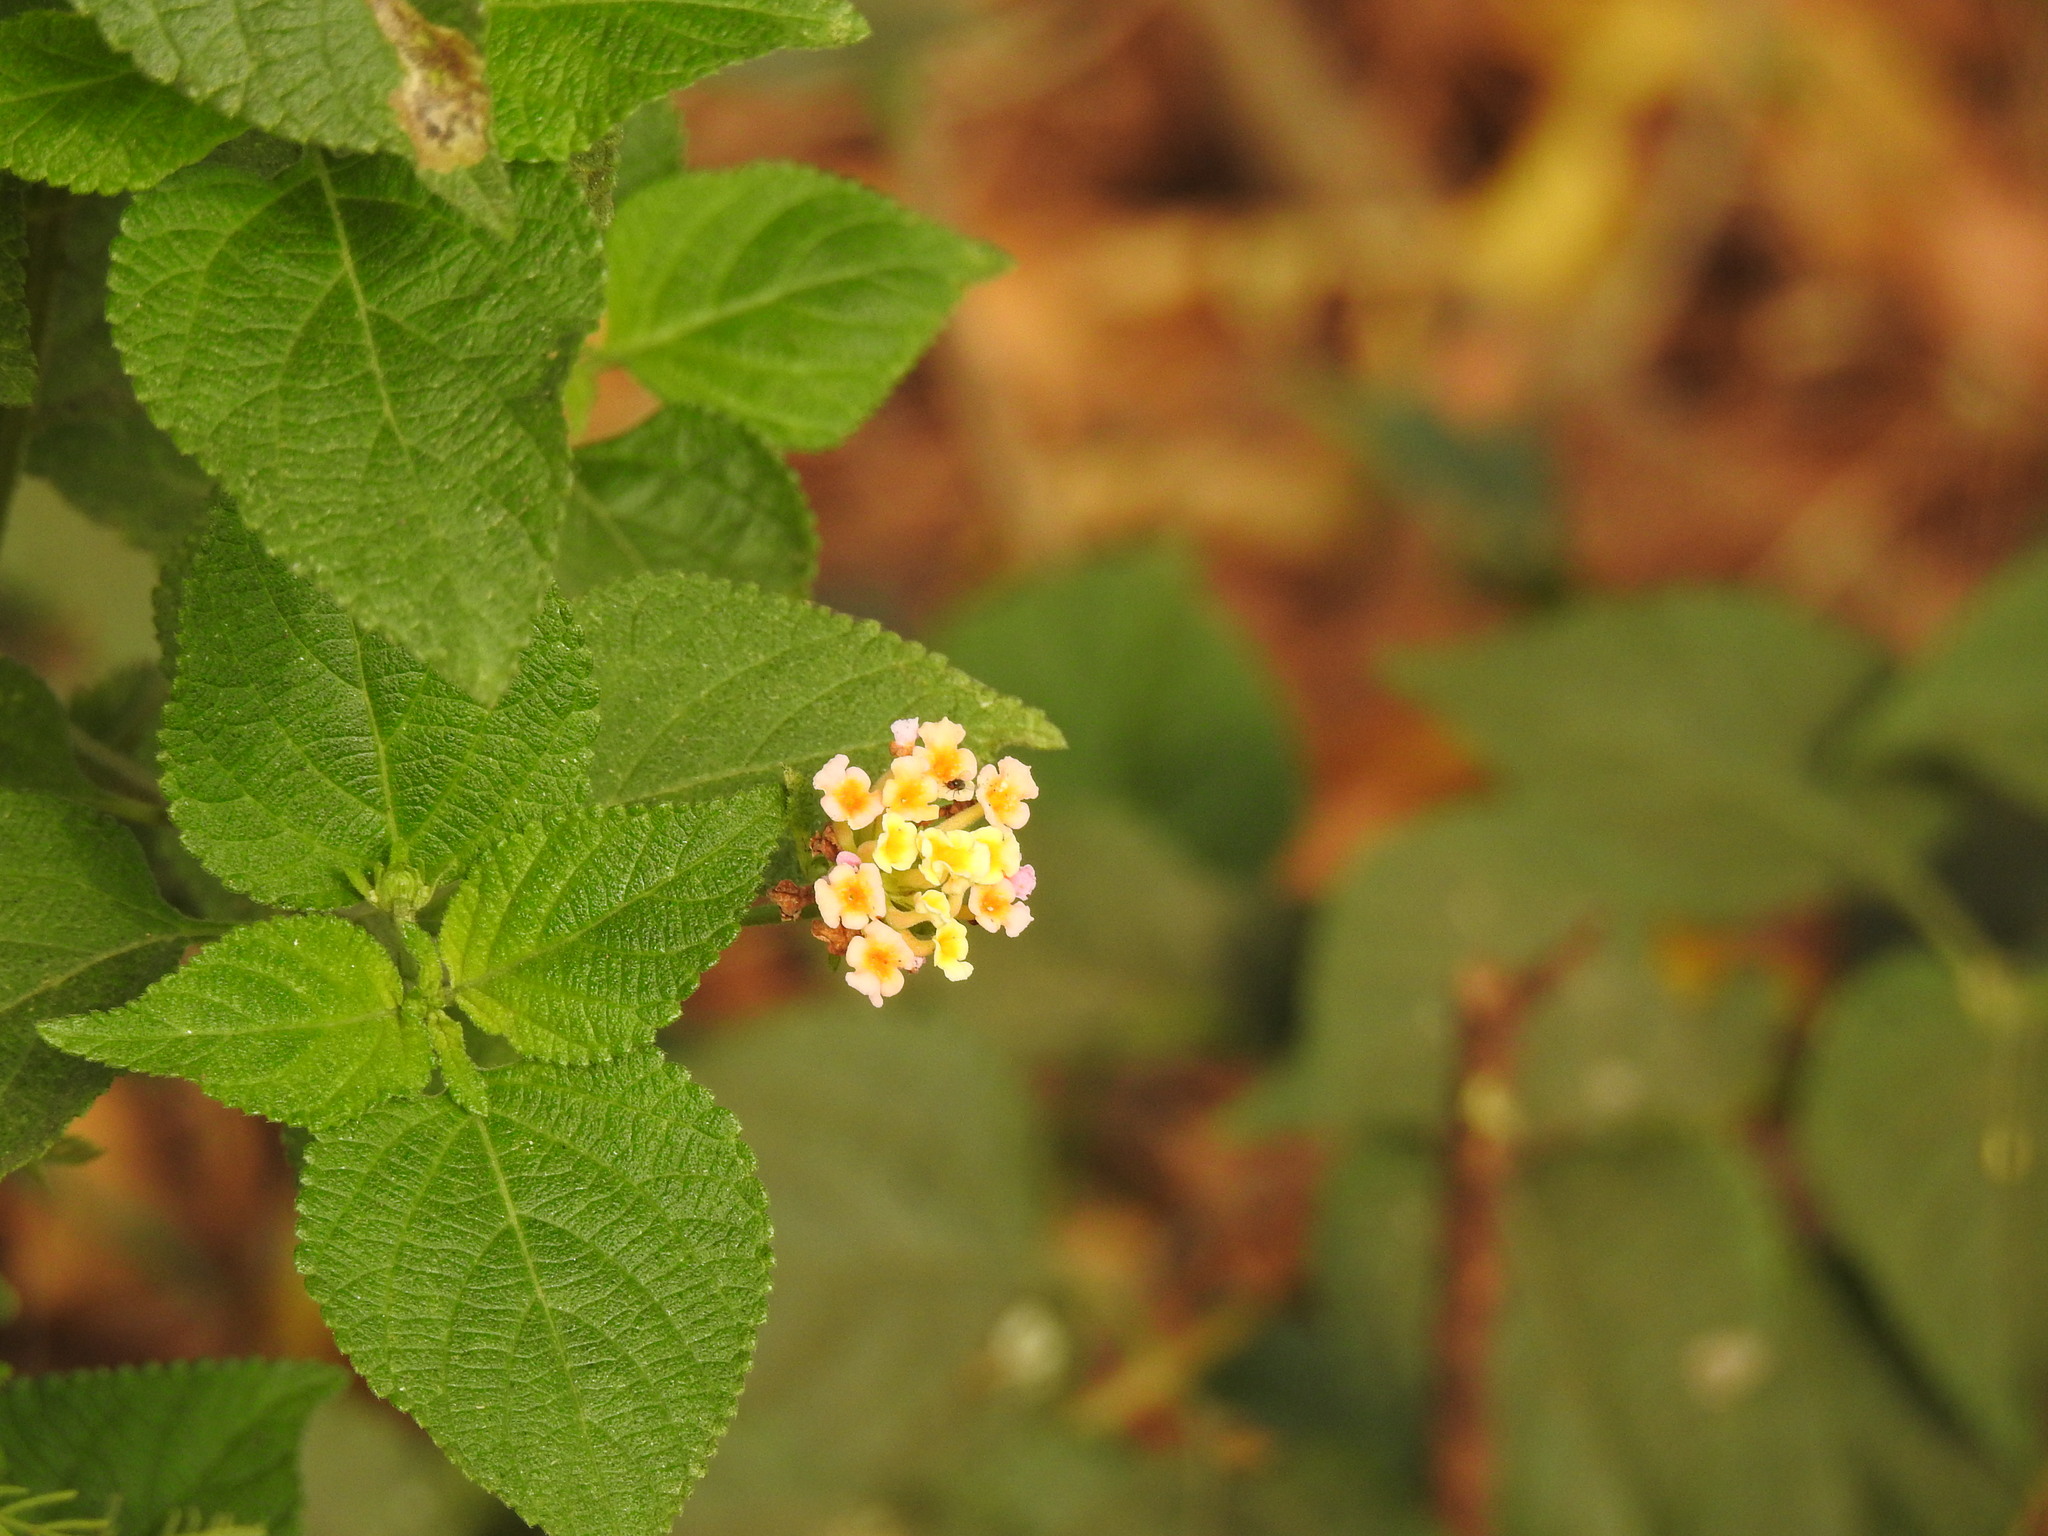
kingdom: Plantae
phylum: Tracheophyta
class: Magnoliopsida
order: Lamiales
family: Verbenaceae
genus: Lantana
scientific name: Lantana camara
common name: Lantana
